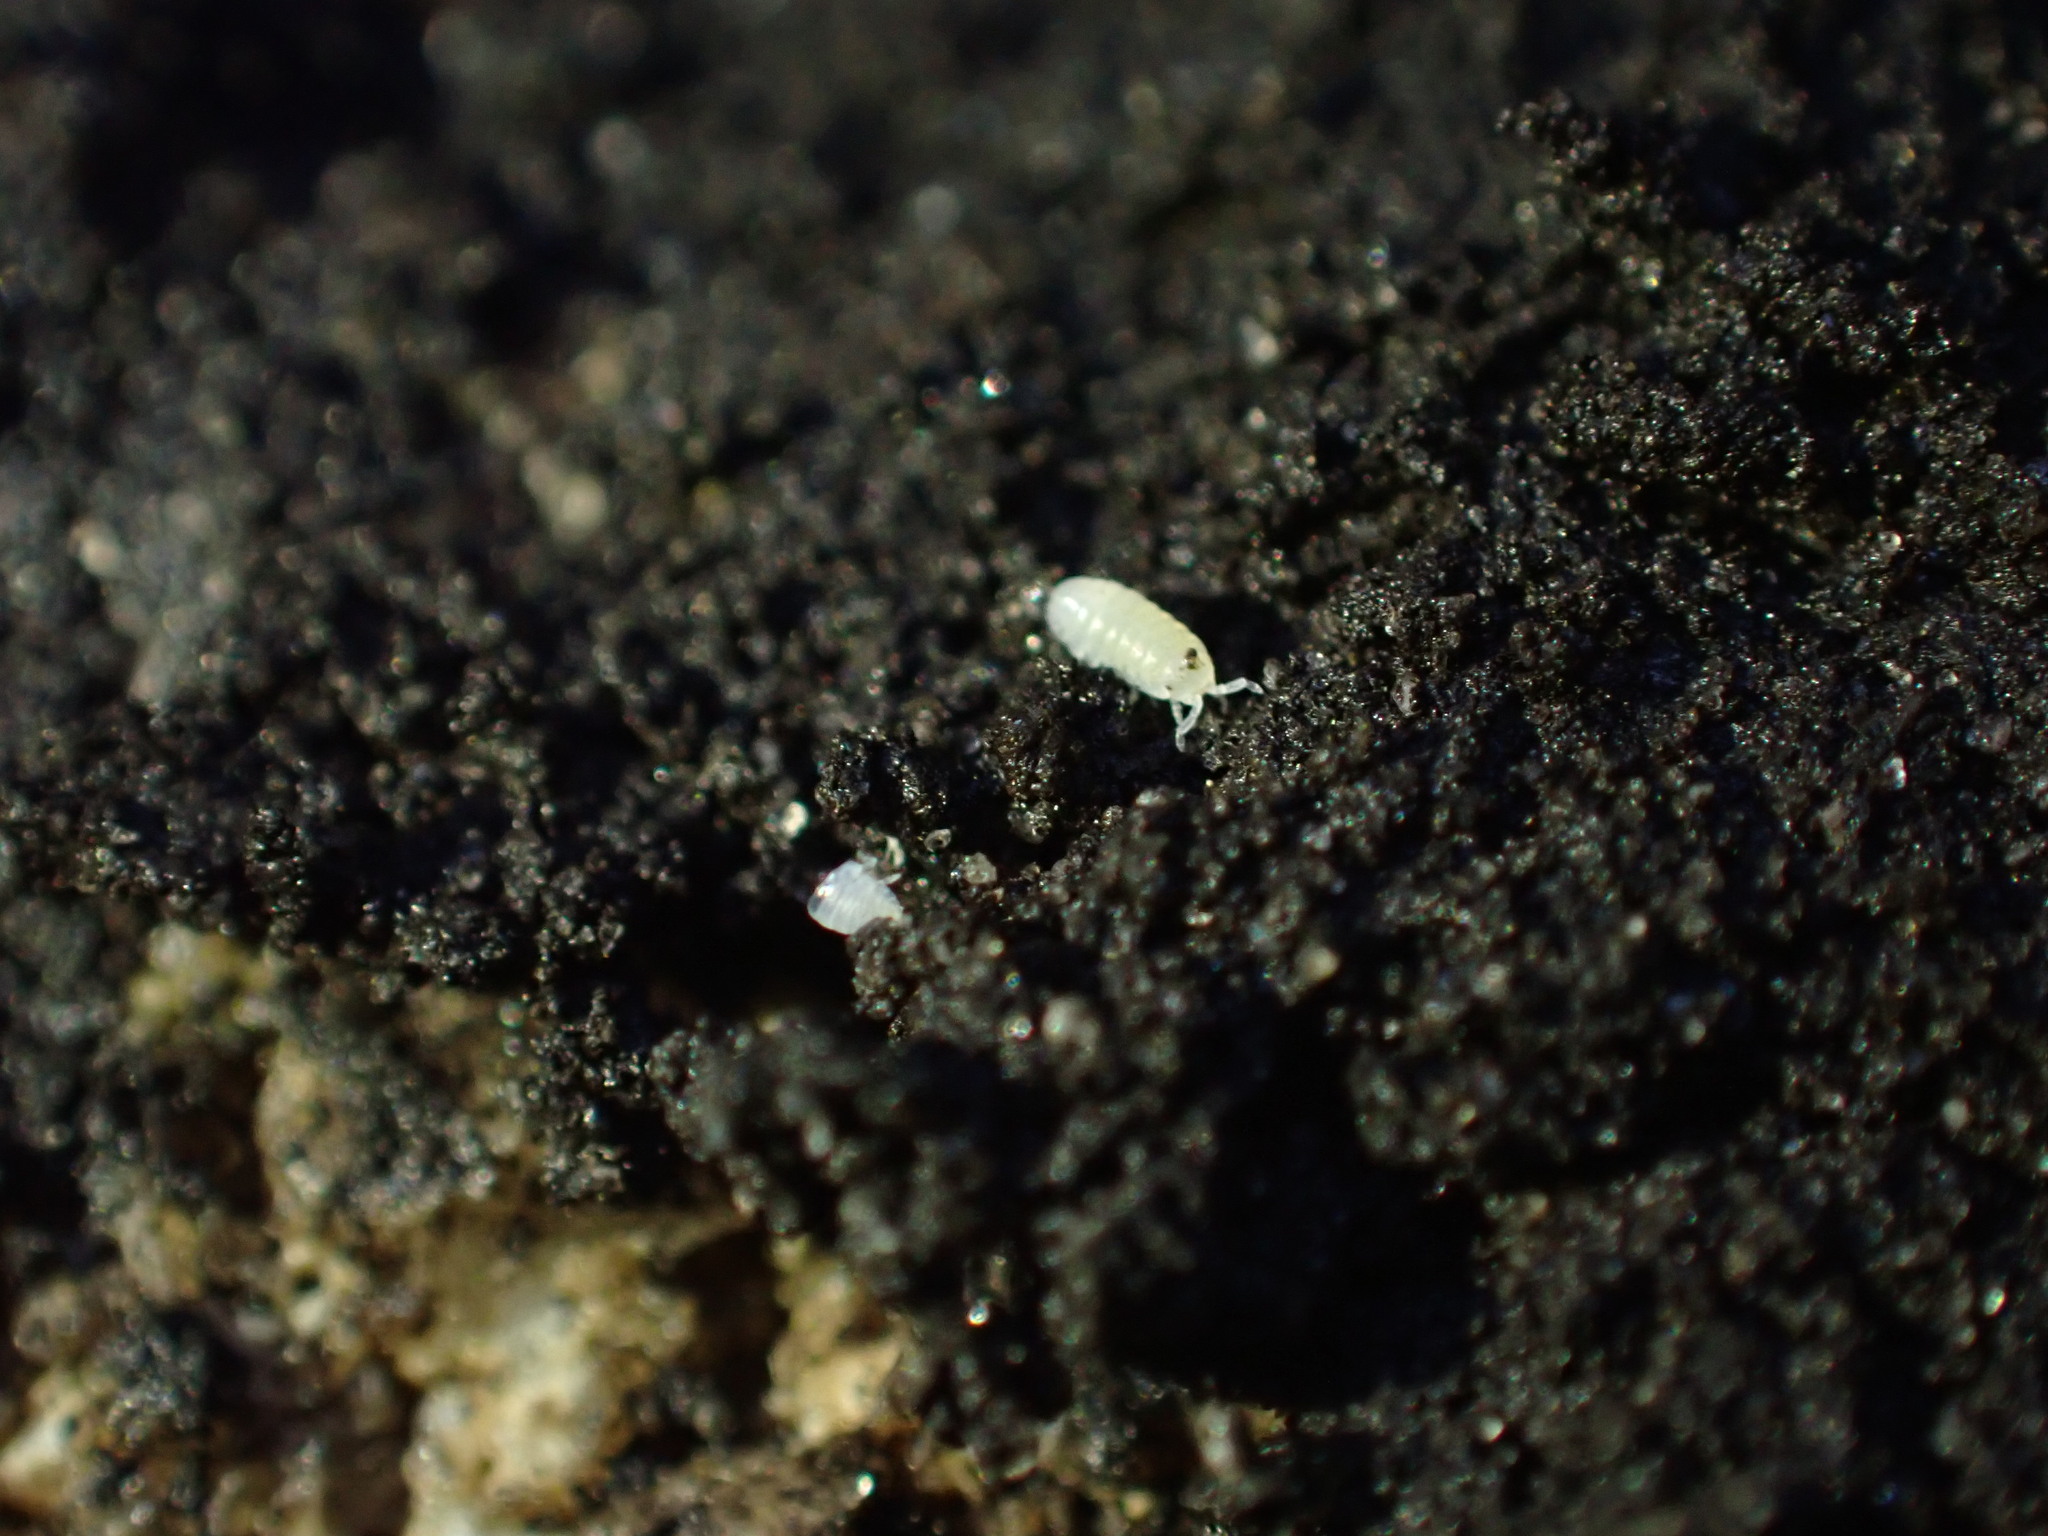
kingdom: Animalia
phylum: Arthropoda
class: Malacostraca
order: Isopoda
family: Armadillidiidae
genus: Armadillidium
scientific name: Armadillidium vulgare
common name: Common pill woodlouse
